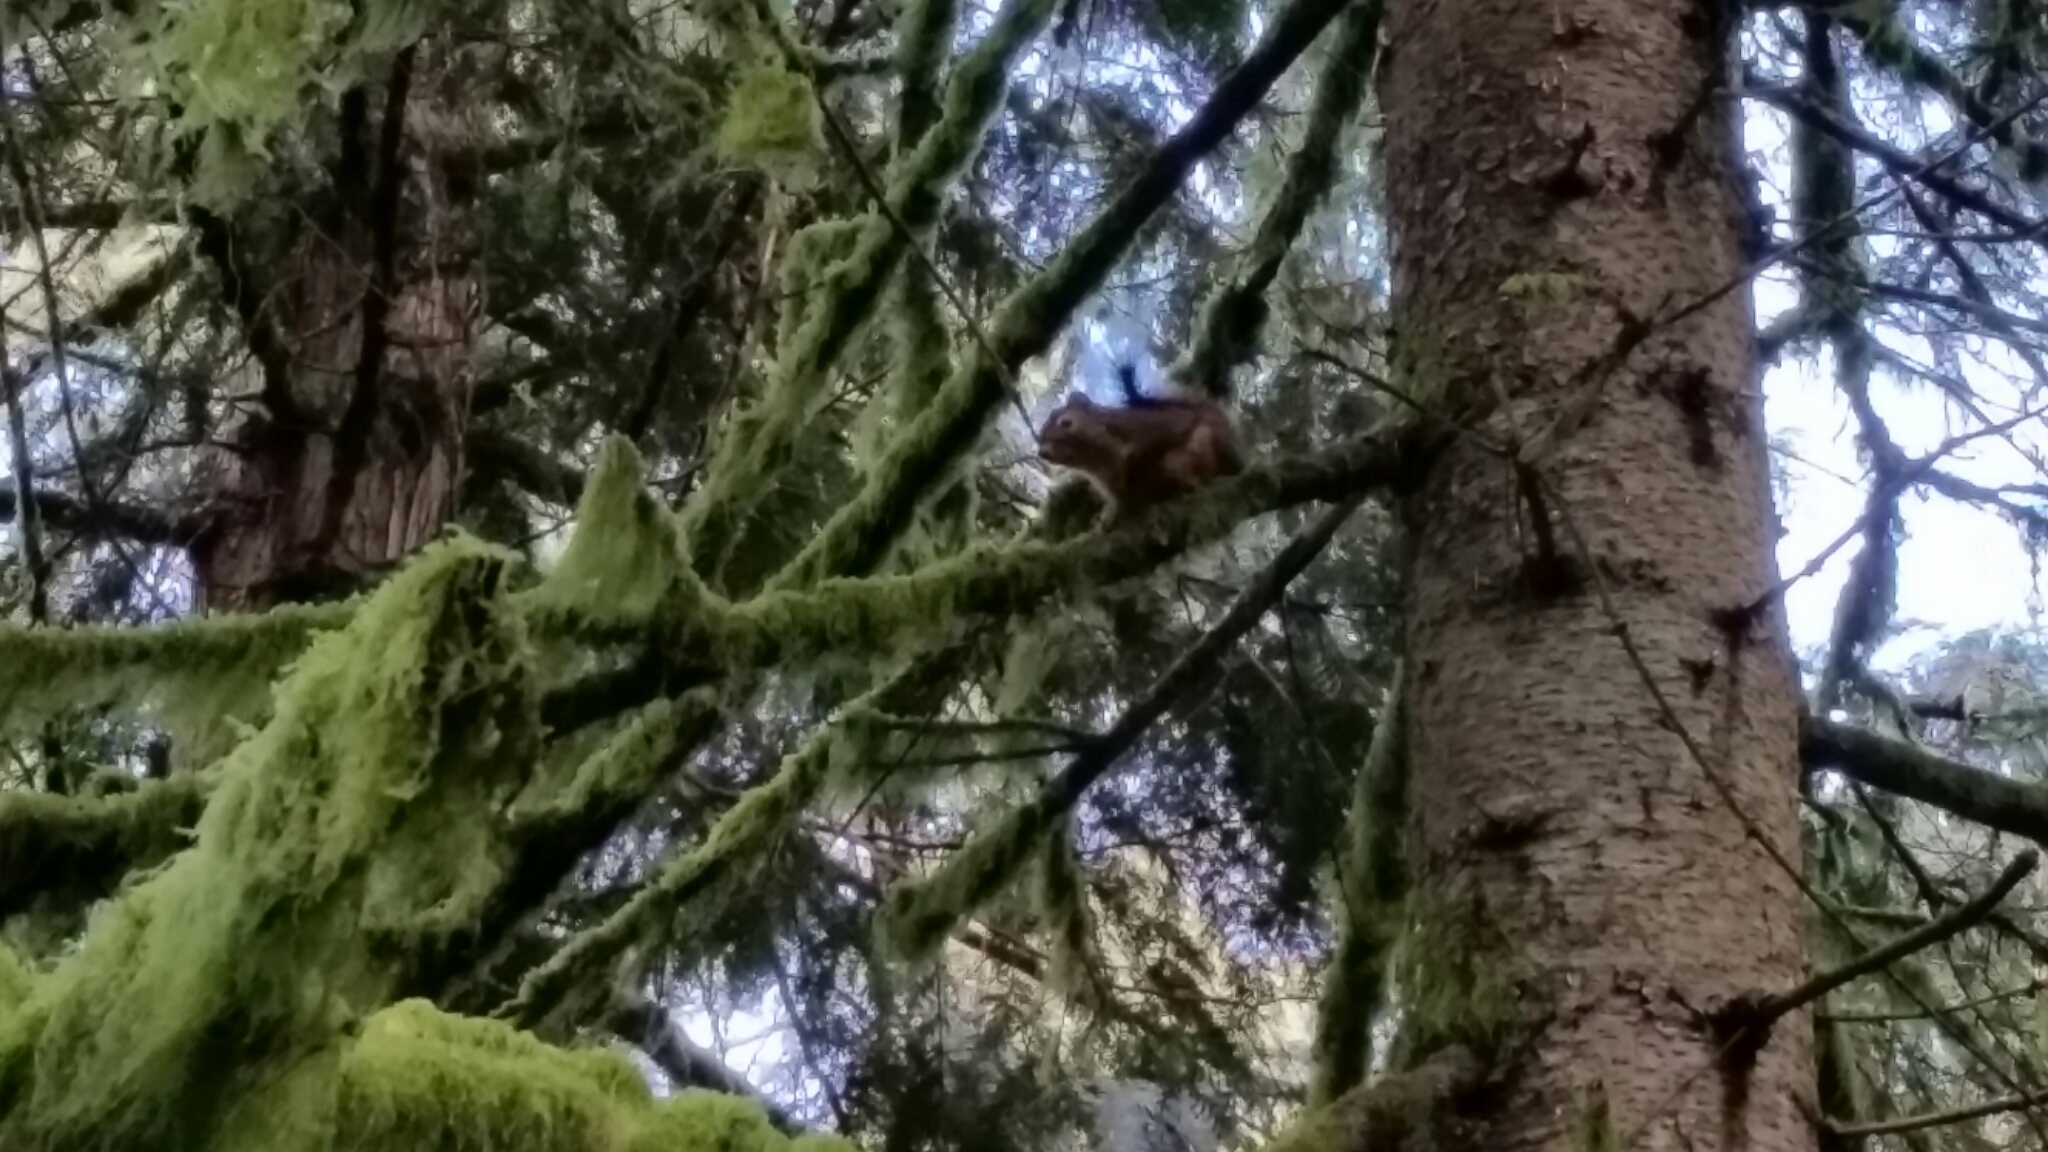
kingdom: Animalia
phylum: Chordata
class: Mammalia
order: Rodentia
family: Sciuridae
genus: Tamiasciurus
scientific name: Tamiasciurus douglasii
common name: Douglas's squirrel
